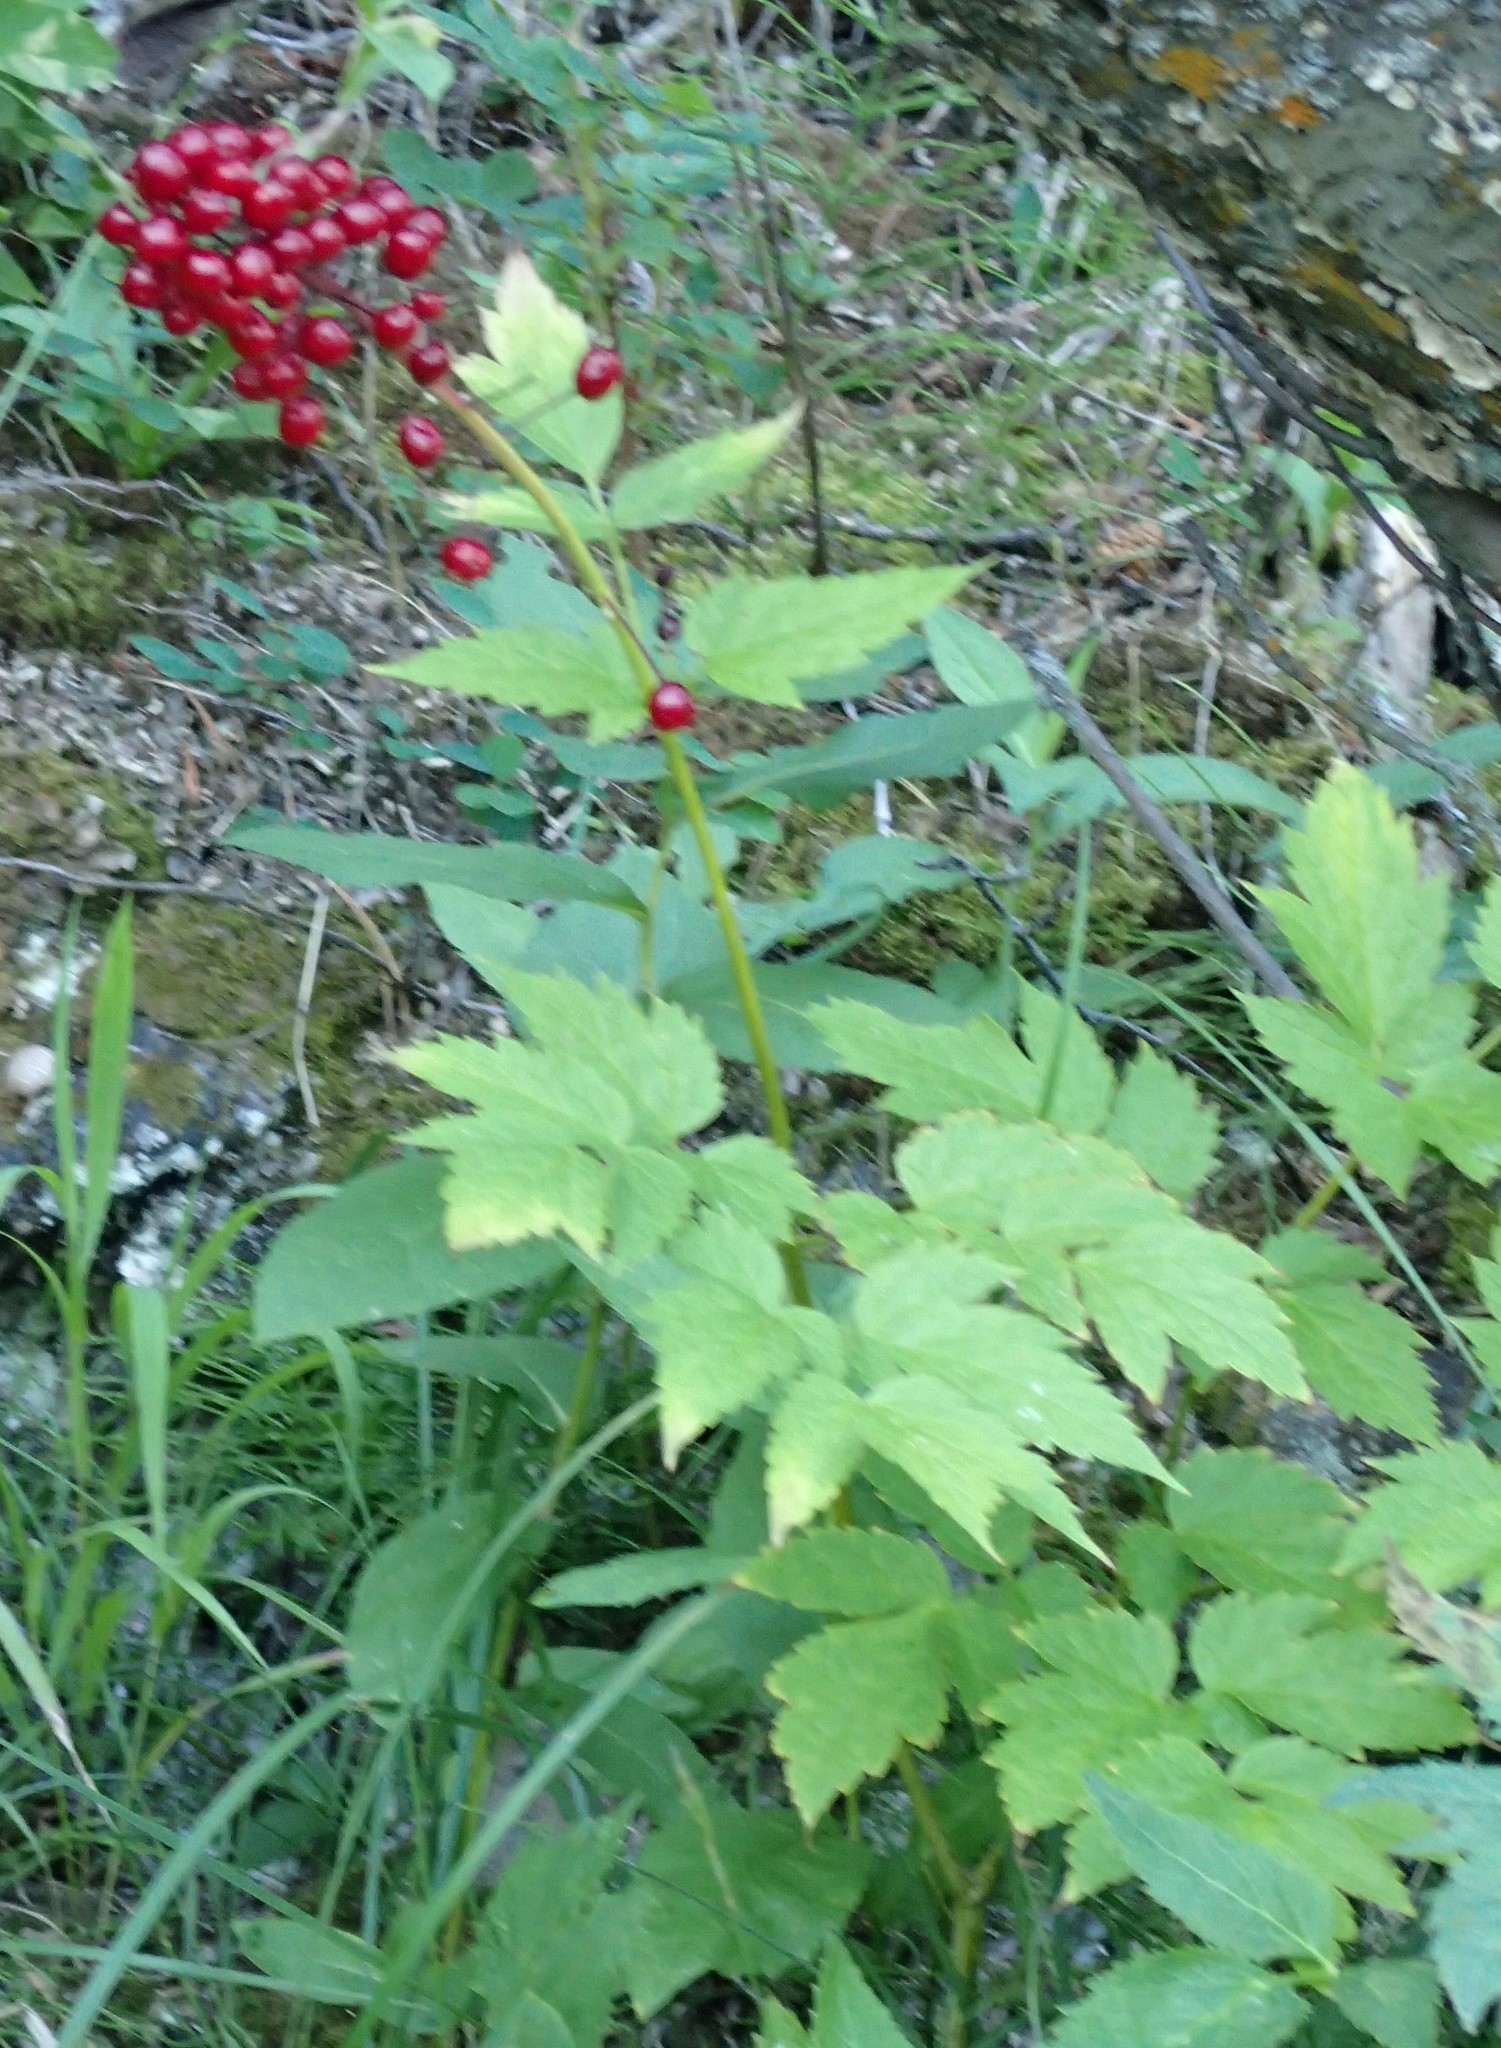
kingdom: Plantae
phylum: Tracheophyta
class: Magnoliopsida
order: Ranunculales
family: Ranunculaceae
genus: Actaea
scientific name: Actaea rubra
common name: Red baneberry
